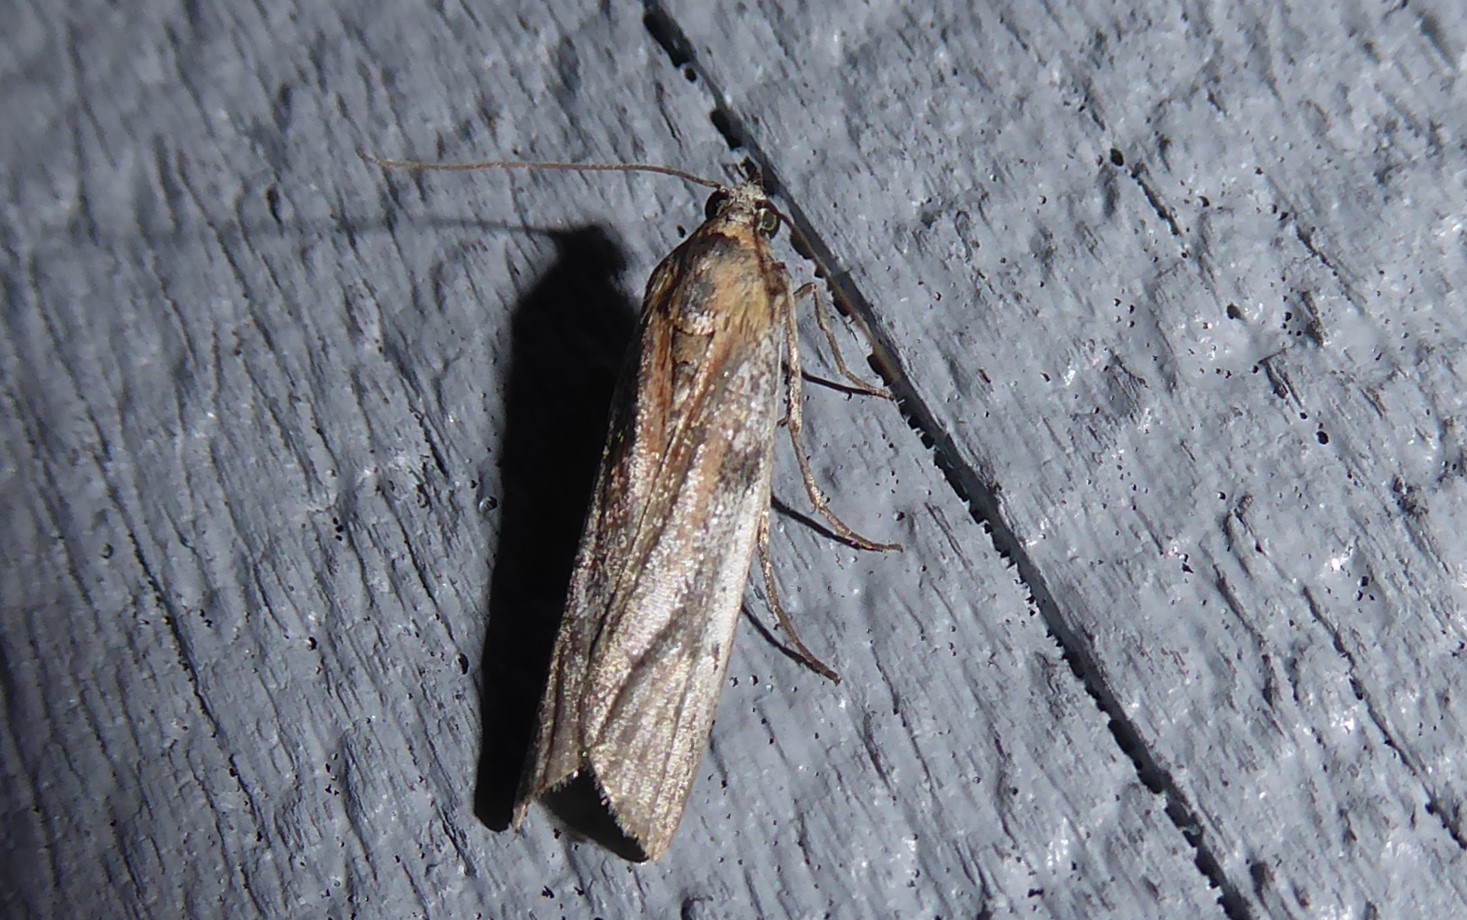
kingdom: Animalia
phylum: Arthropoda
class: Insecta
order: Lepidoptera
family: Pyralidae
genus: Patagoniodes
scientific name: Patagoniodes farinaria
